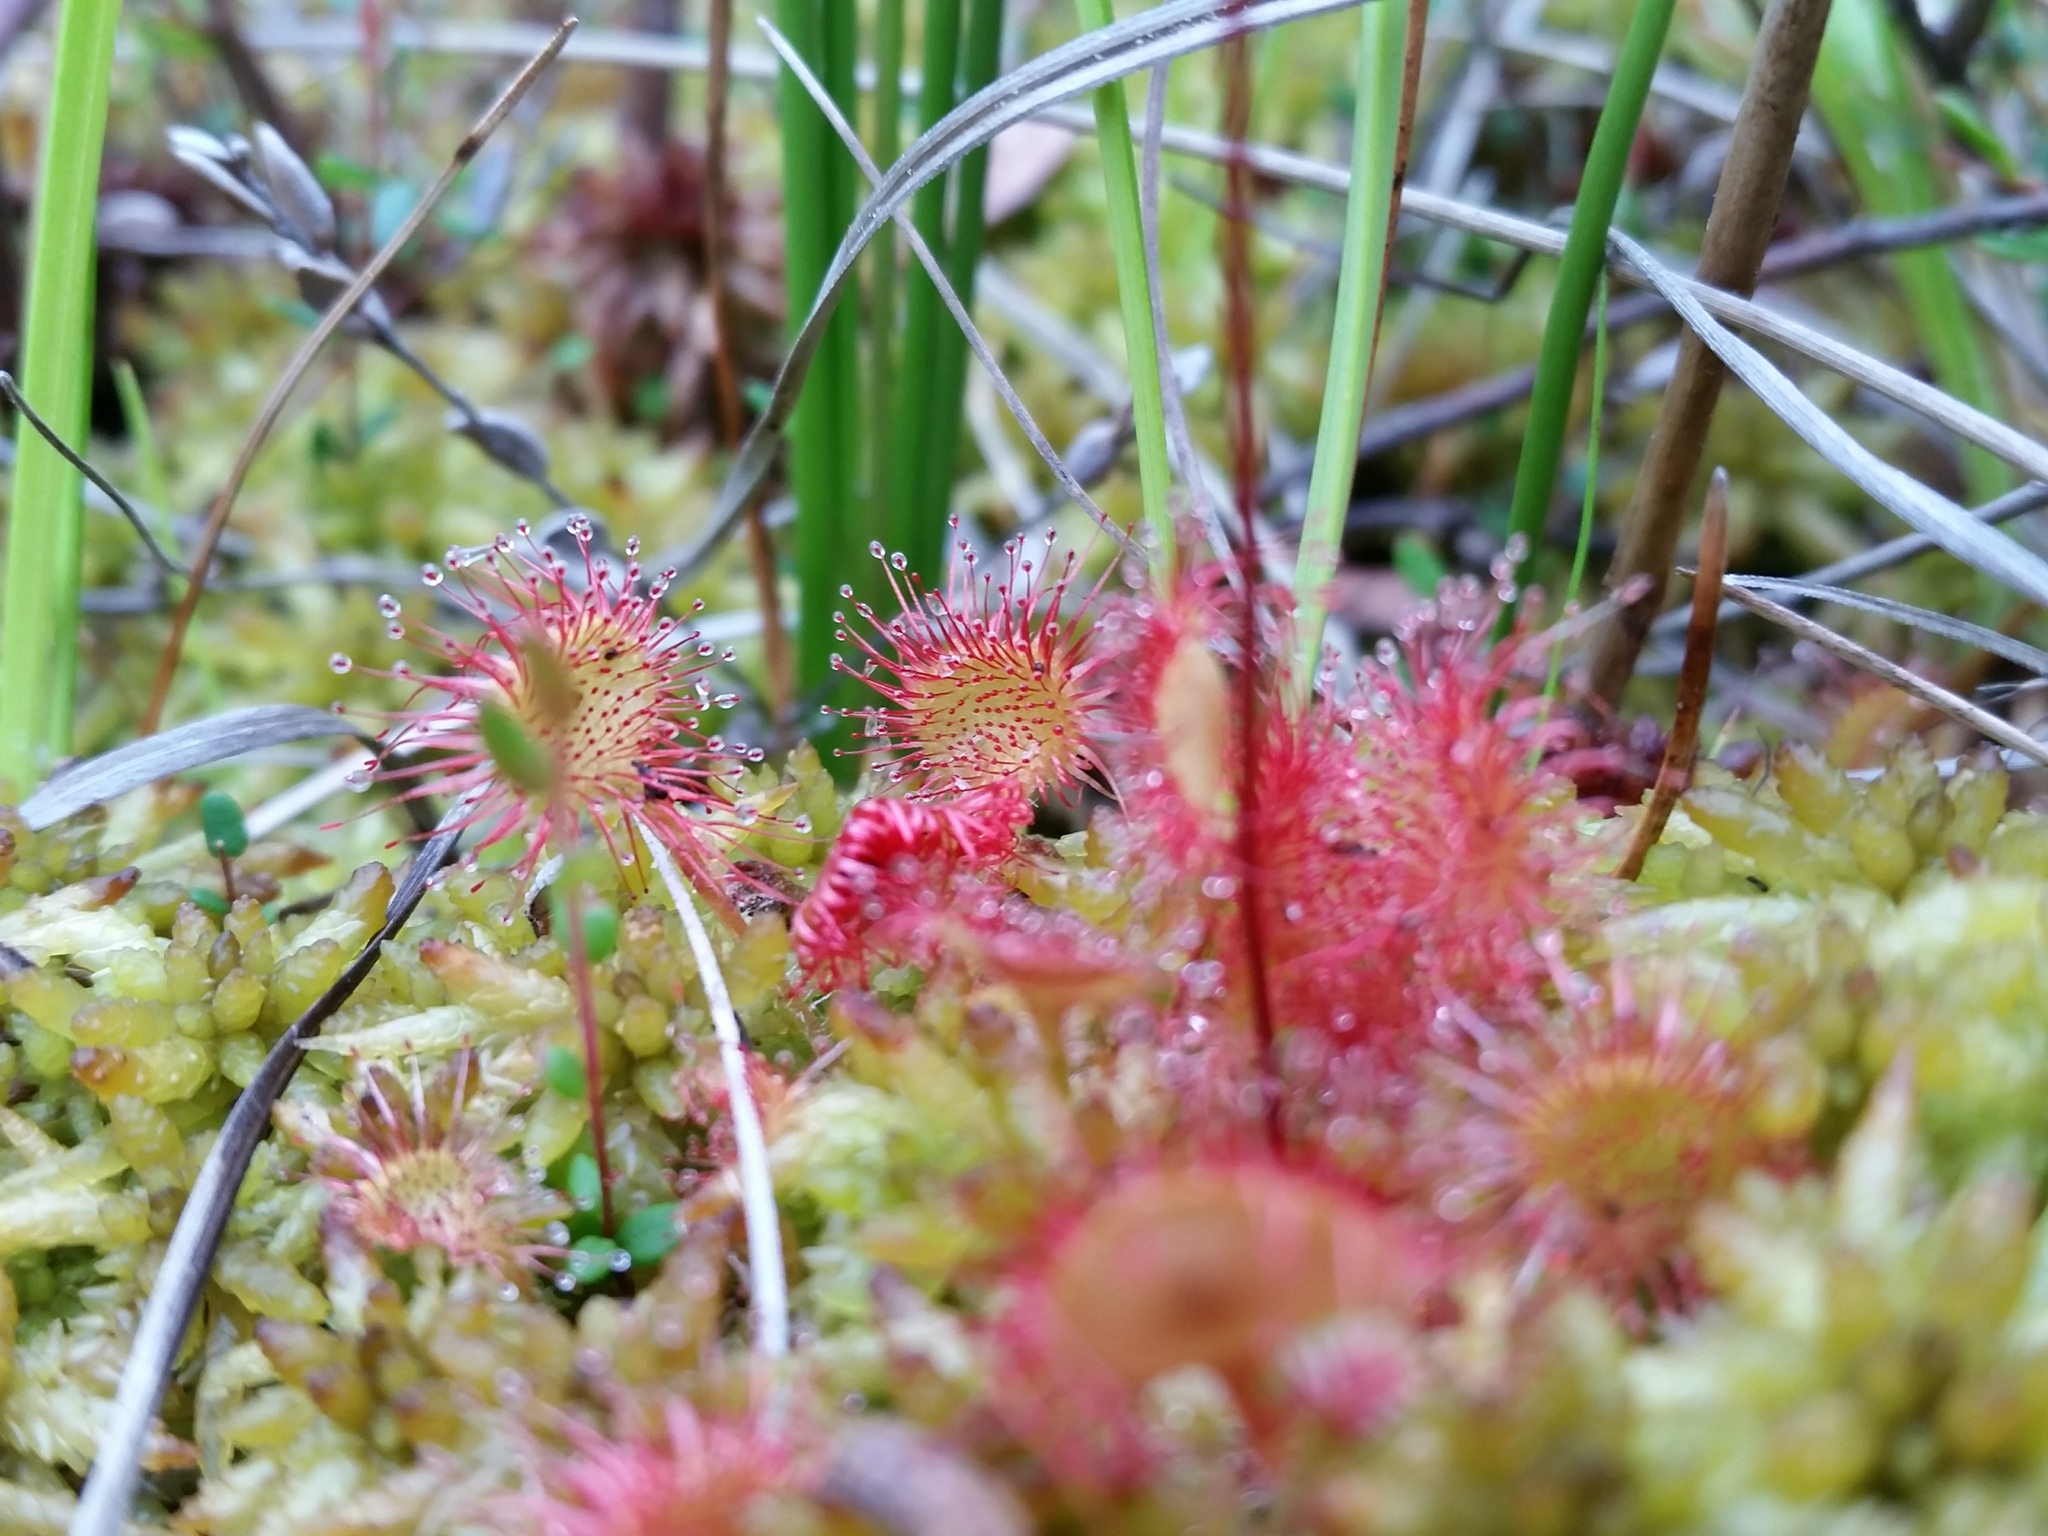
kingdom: Plantae
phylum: Tracheophyta
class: Magnoliopsida
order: Caryophyllales
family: Droseraceae
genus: Drosera
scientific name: Drosera rotundifolia
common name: Round-leaved sundew
